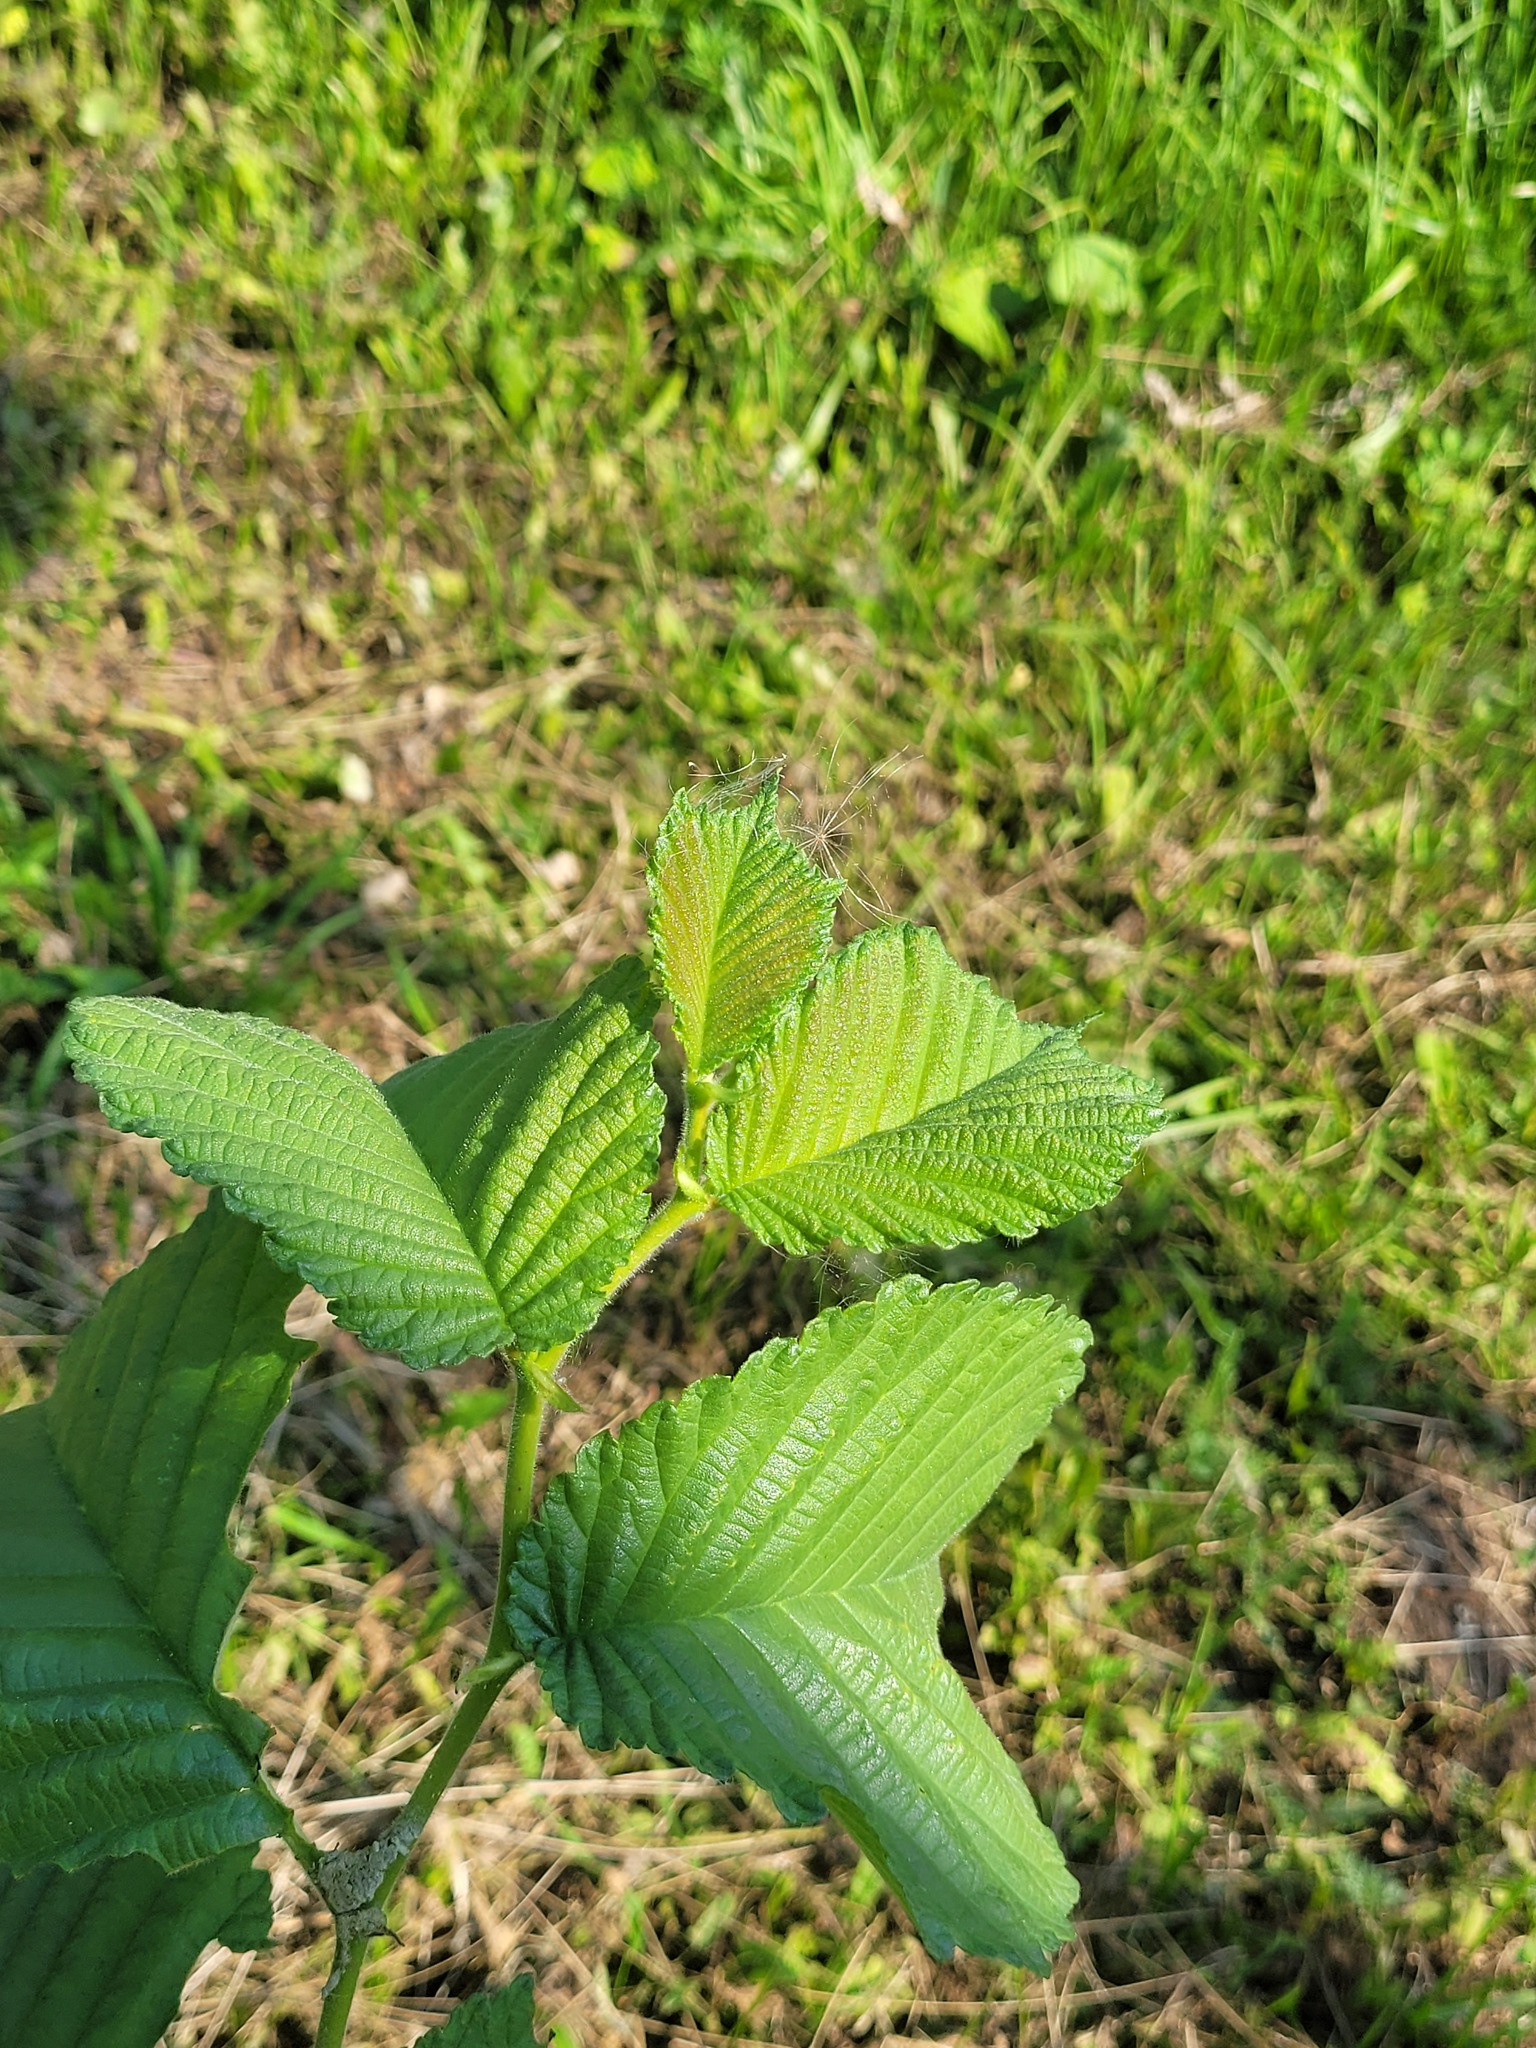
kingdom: Plantae
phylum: Tracheophyta
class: Magnoliopsida
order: Rosales
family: Ulmaceae
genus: Ulmus
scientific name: Ulmus glabra
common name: Wych elm
